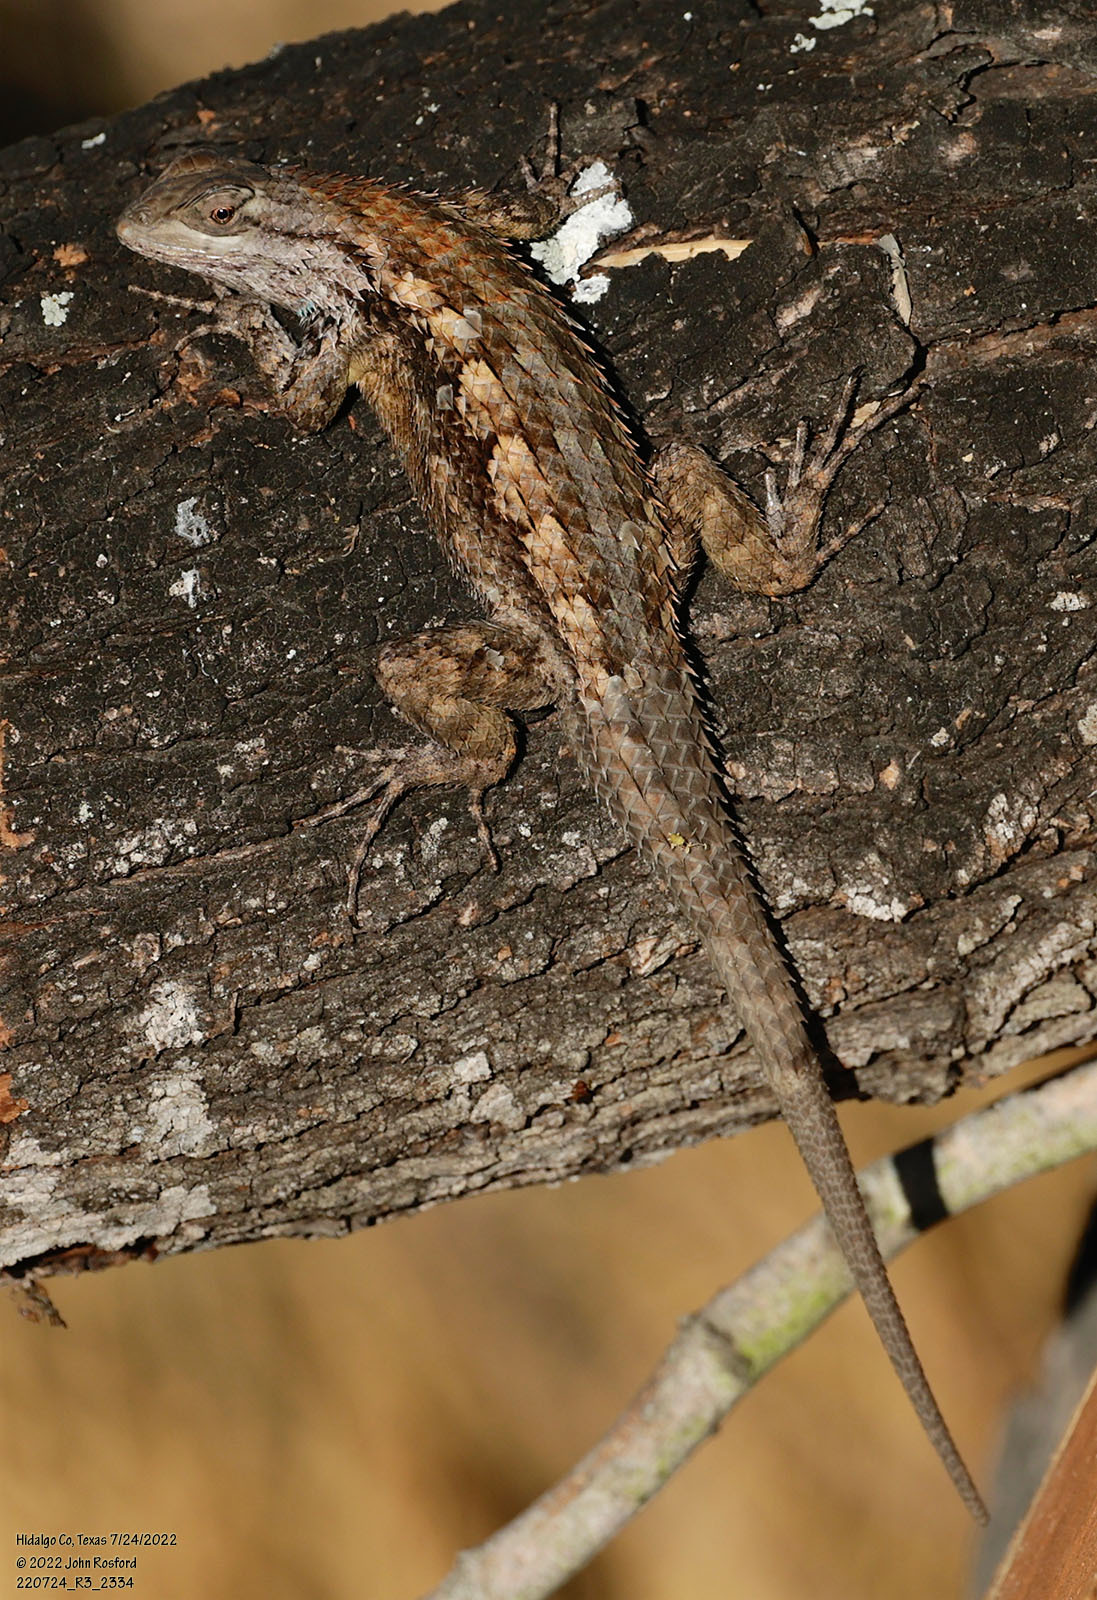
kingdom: Animalia
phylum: Chordata
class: Squamata
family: Phrynosomatidae
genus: Sceloporus
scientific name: Sceloporus olivaceus
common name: Texas spiny lizard
